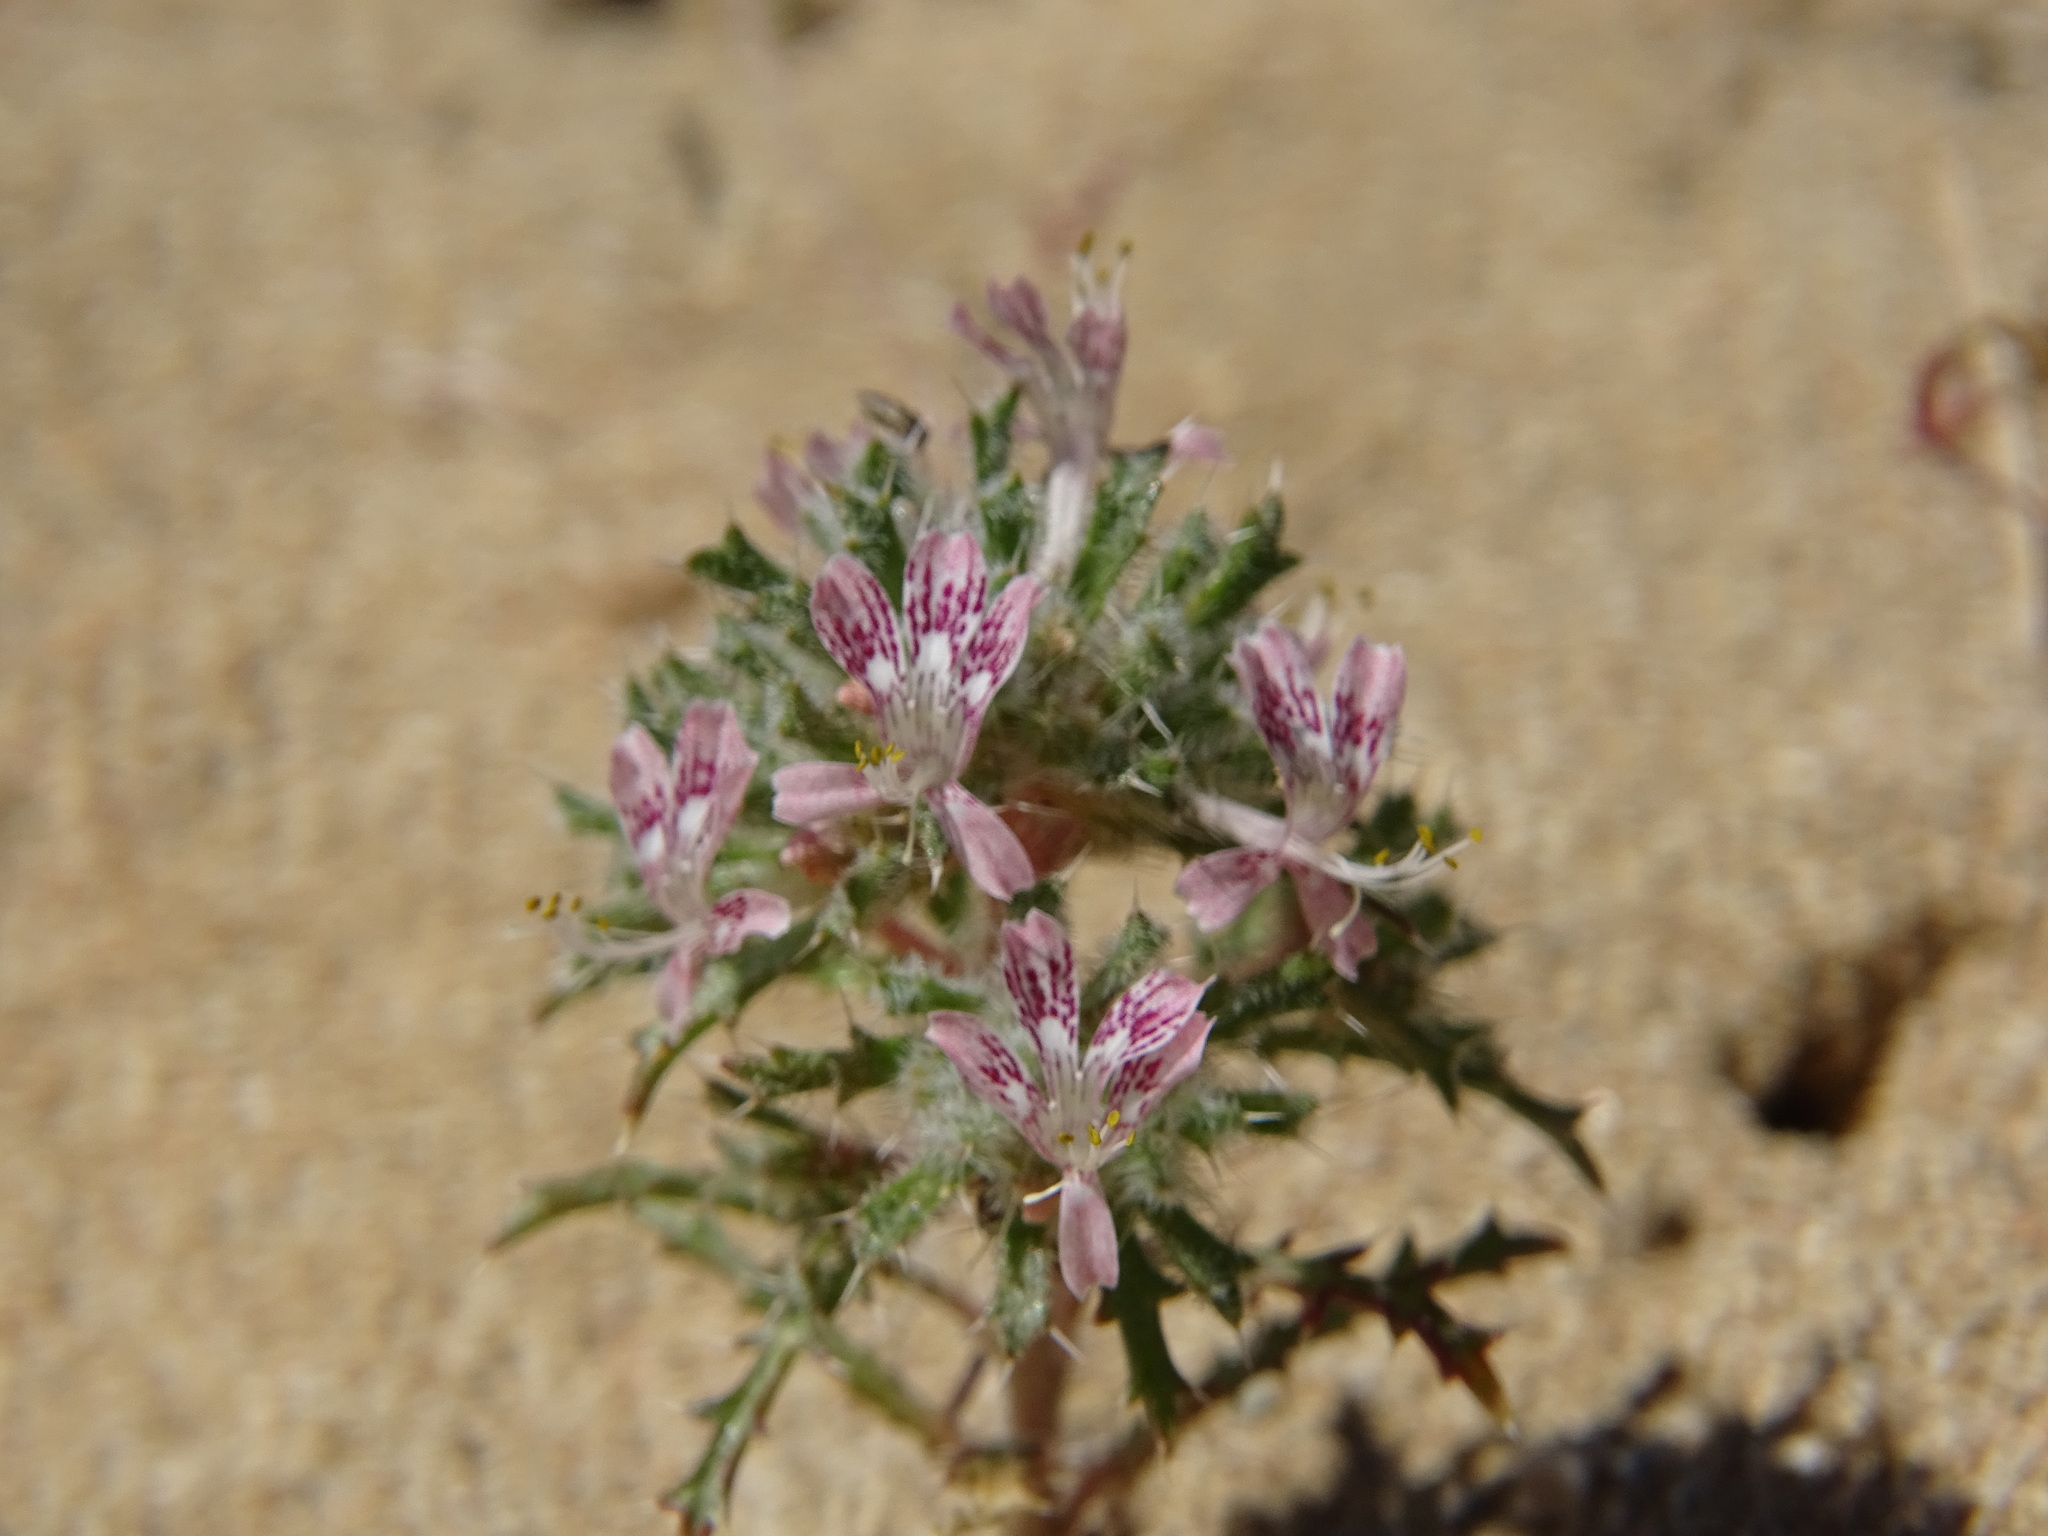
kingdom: Plantae
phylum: Tracheophyta
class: Magnoliopsida
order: Ericales
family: Polemoniaceae
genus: Loeseliastrum
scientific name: Loeseliastrum matthewsii
